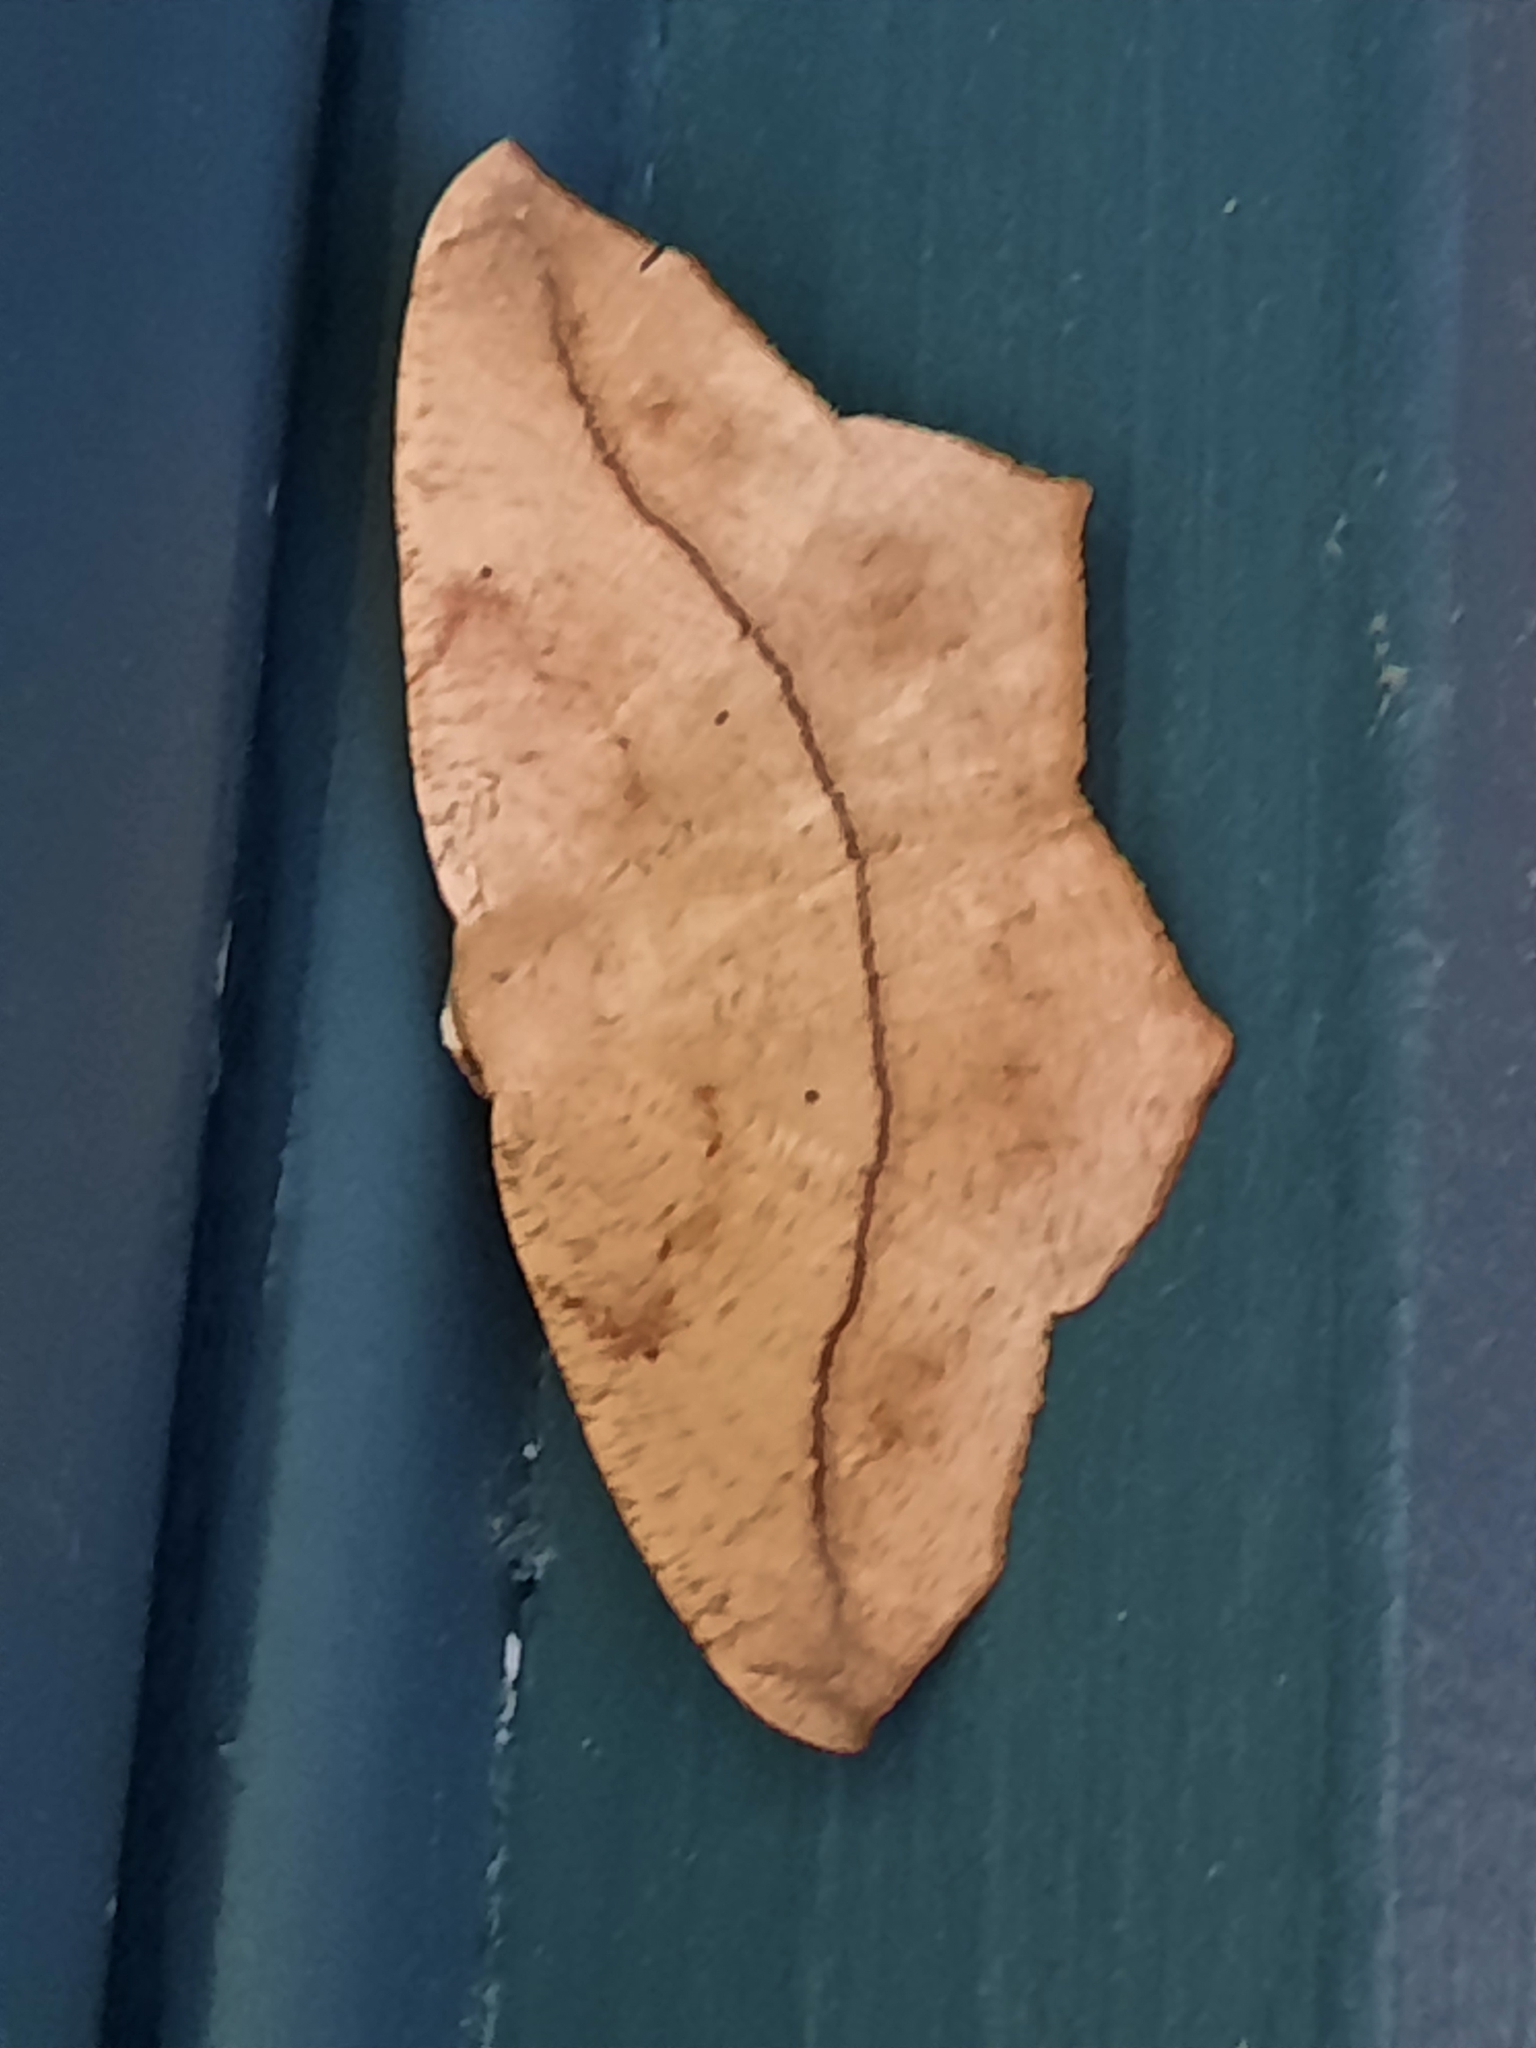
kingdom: Animalia
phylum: Arthropoda
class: Insecta
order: Lepidoptera
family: Geometridae
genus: Prochoerodes
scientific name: Prochoerodes lineola
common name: Large maple spanworm
